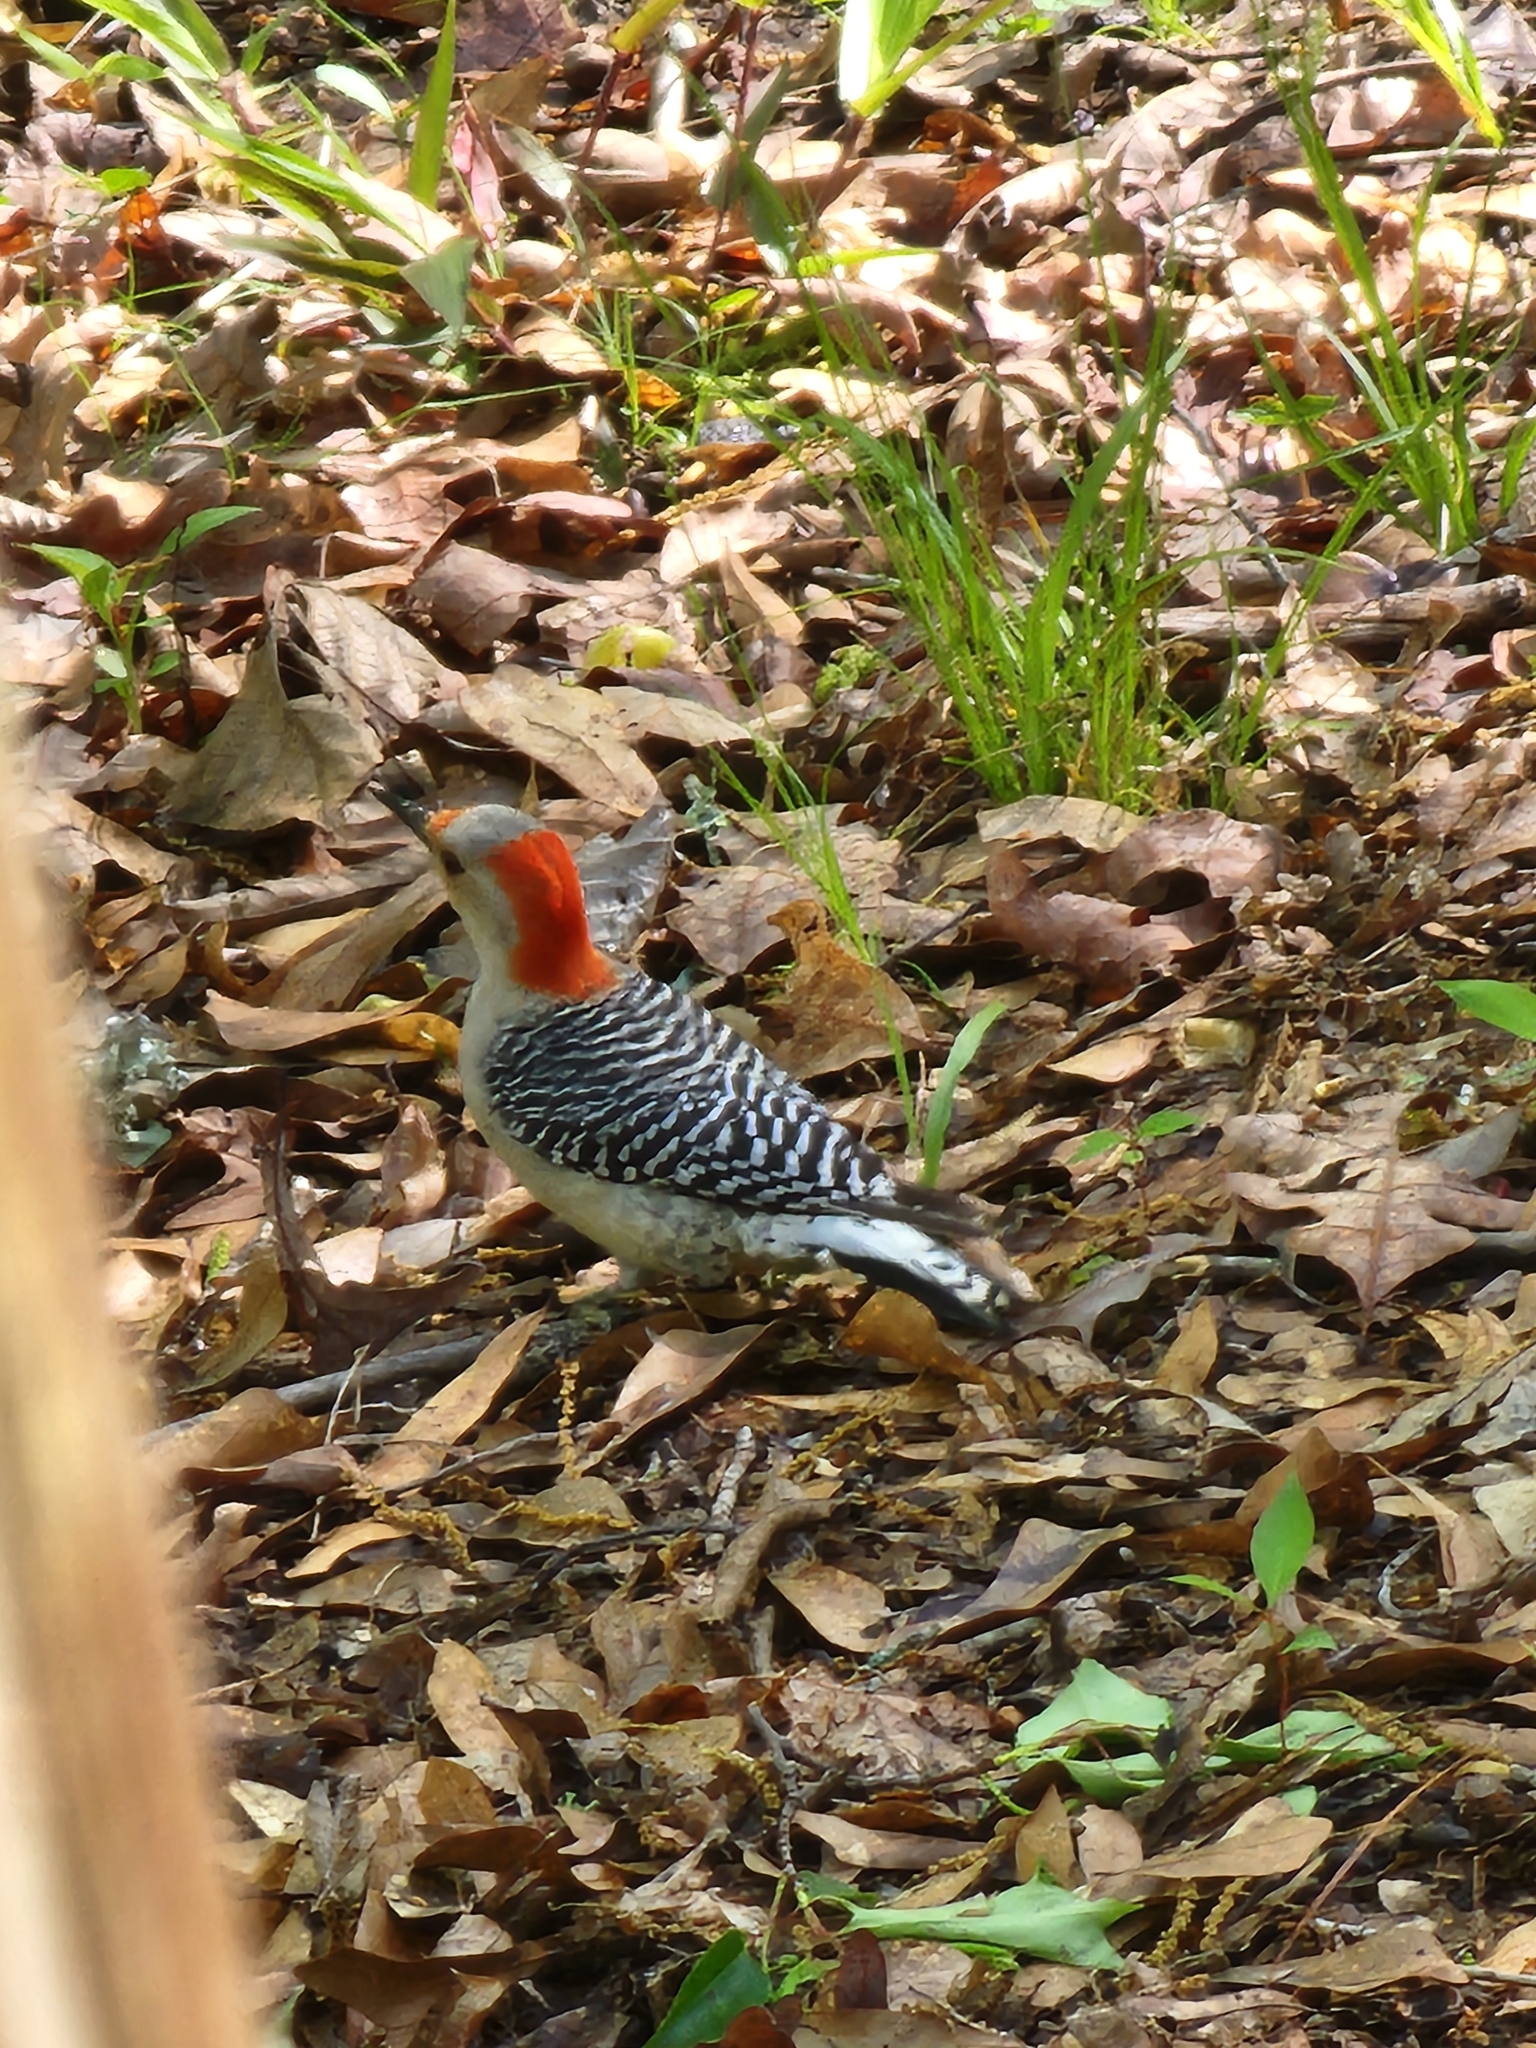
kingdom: Animalia
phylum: Chordata
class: Aves
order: Piciformes
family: Picidae
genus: Melanerpes
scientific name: Melanerpes carolinus
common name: Red-bellied woodpecker
